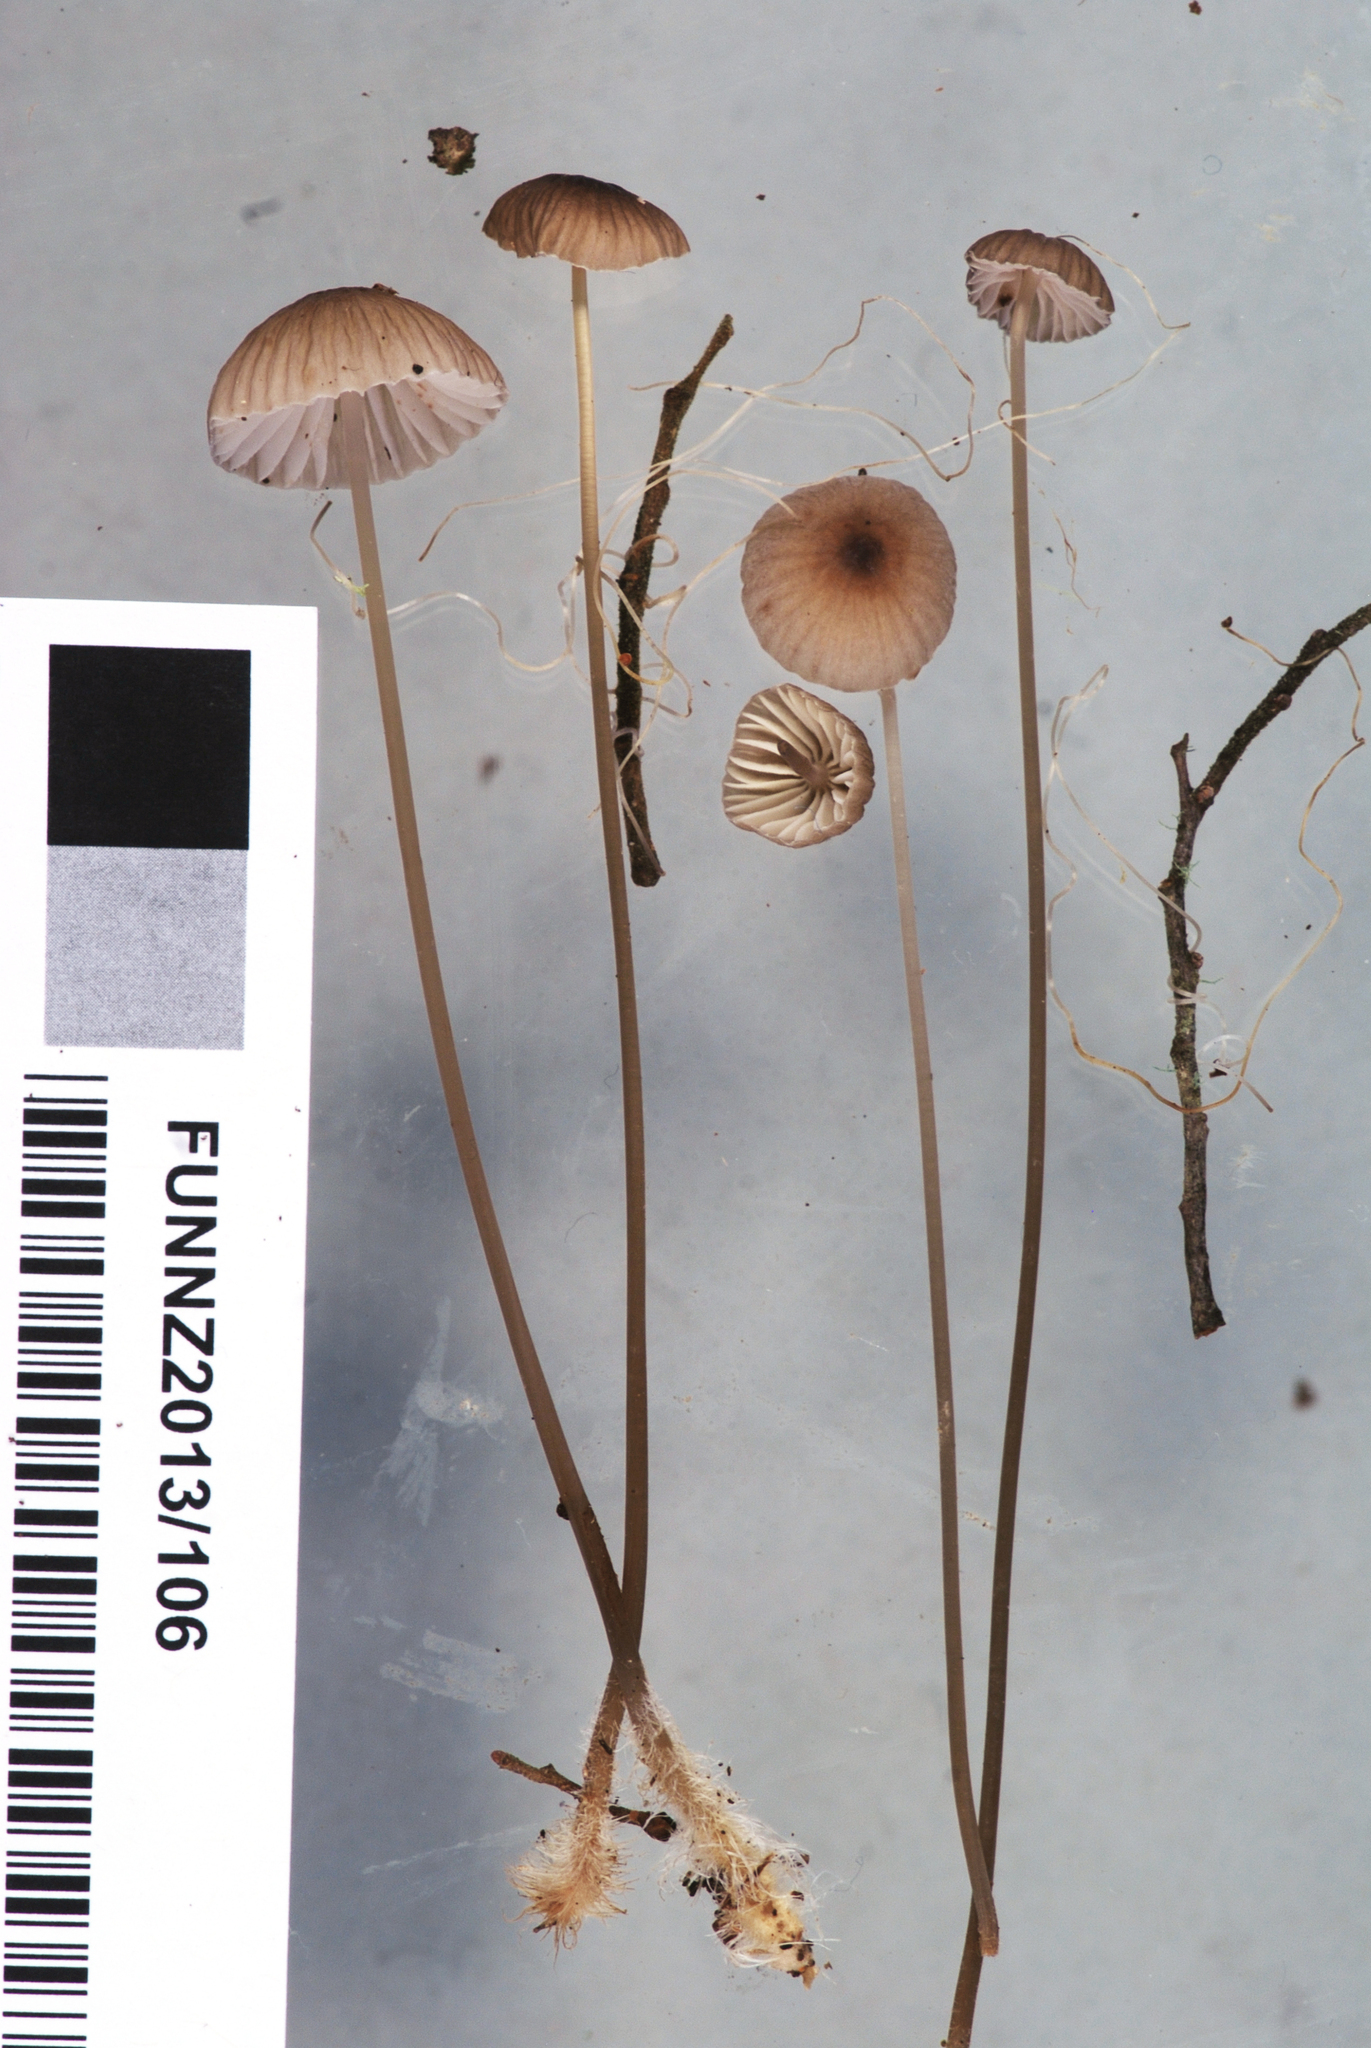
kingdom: Fungi
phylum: Basidiomycota
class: Agaricomycetes
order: Agaricales
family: Mycenaceae
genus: Mycena
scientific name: Mycena cystidiosa
